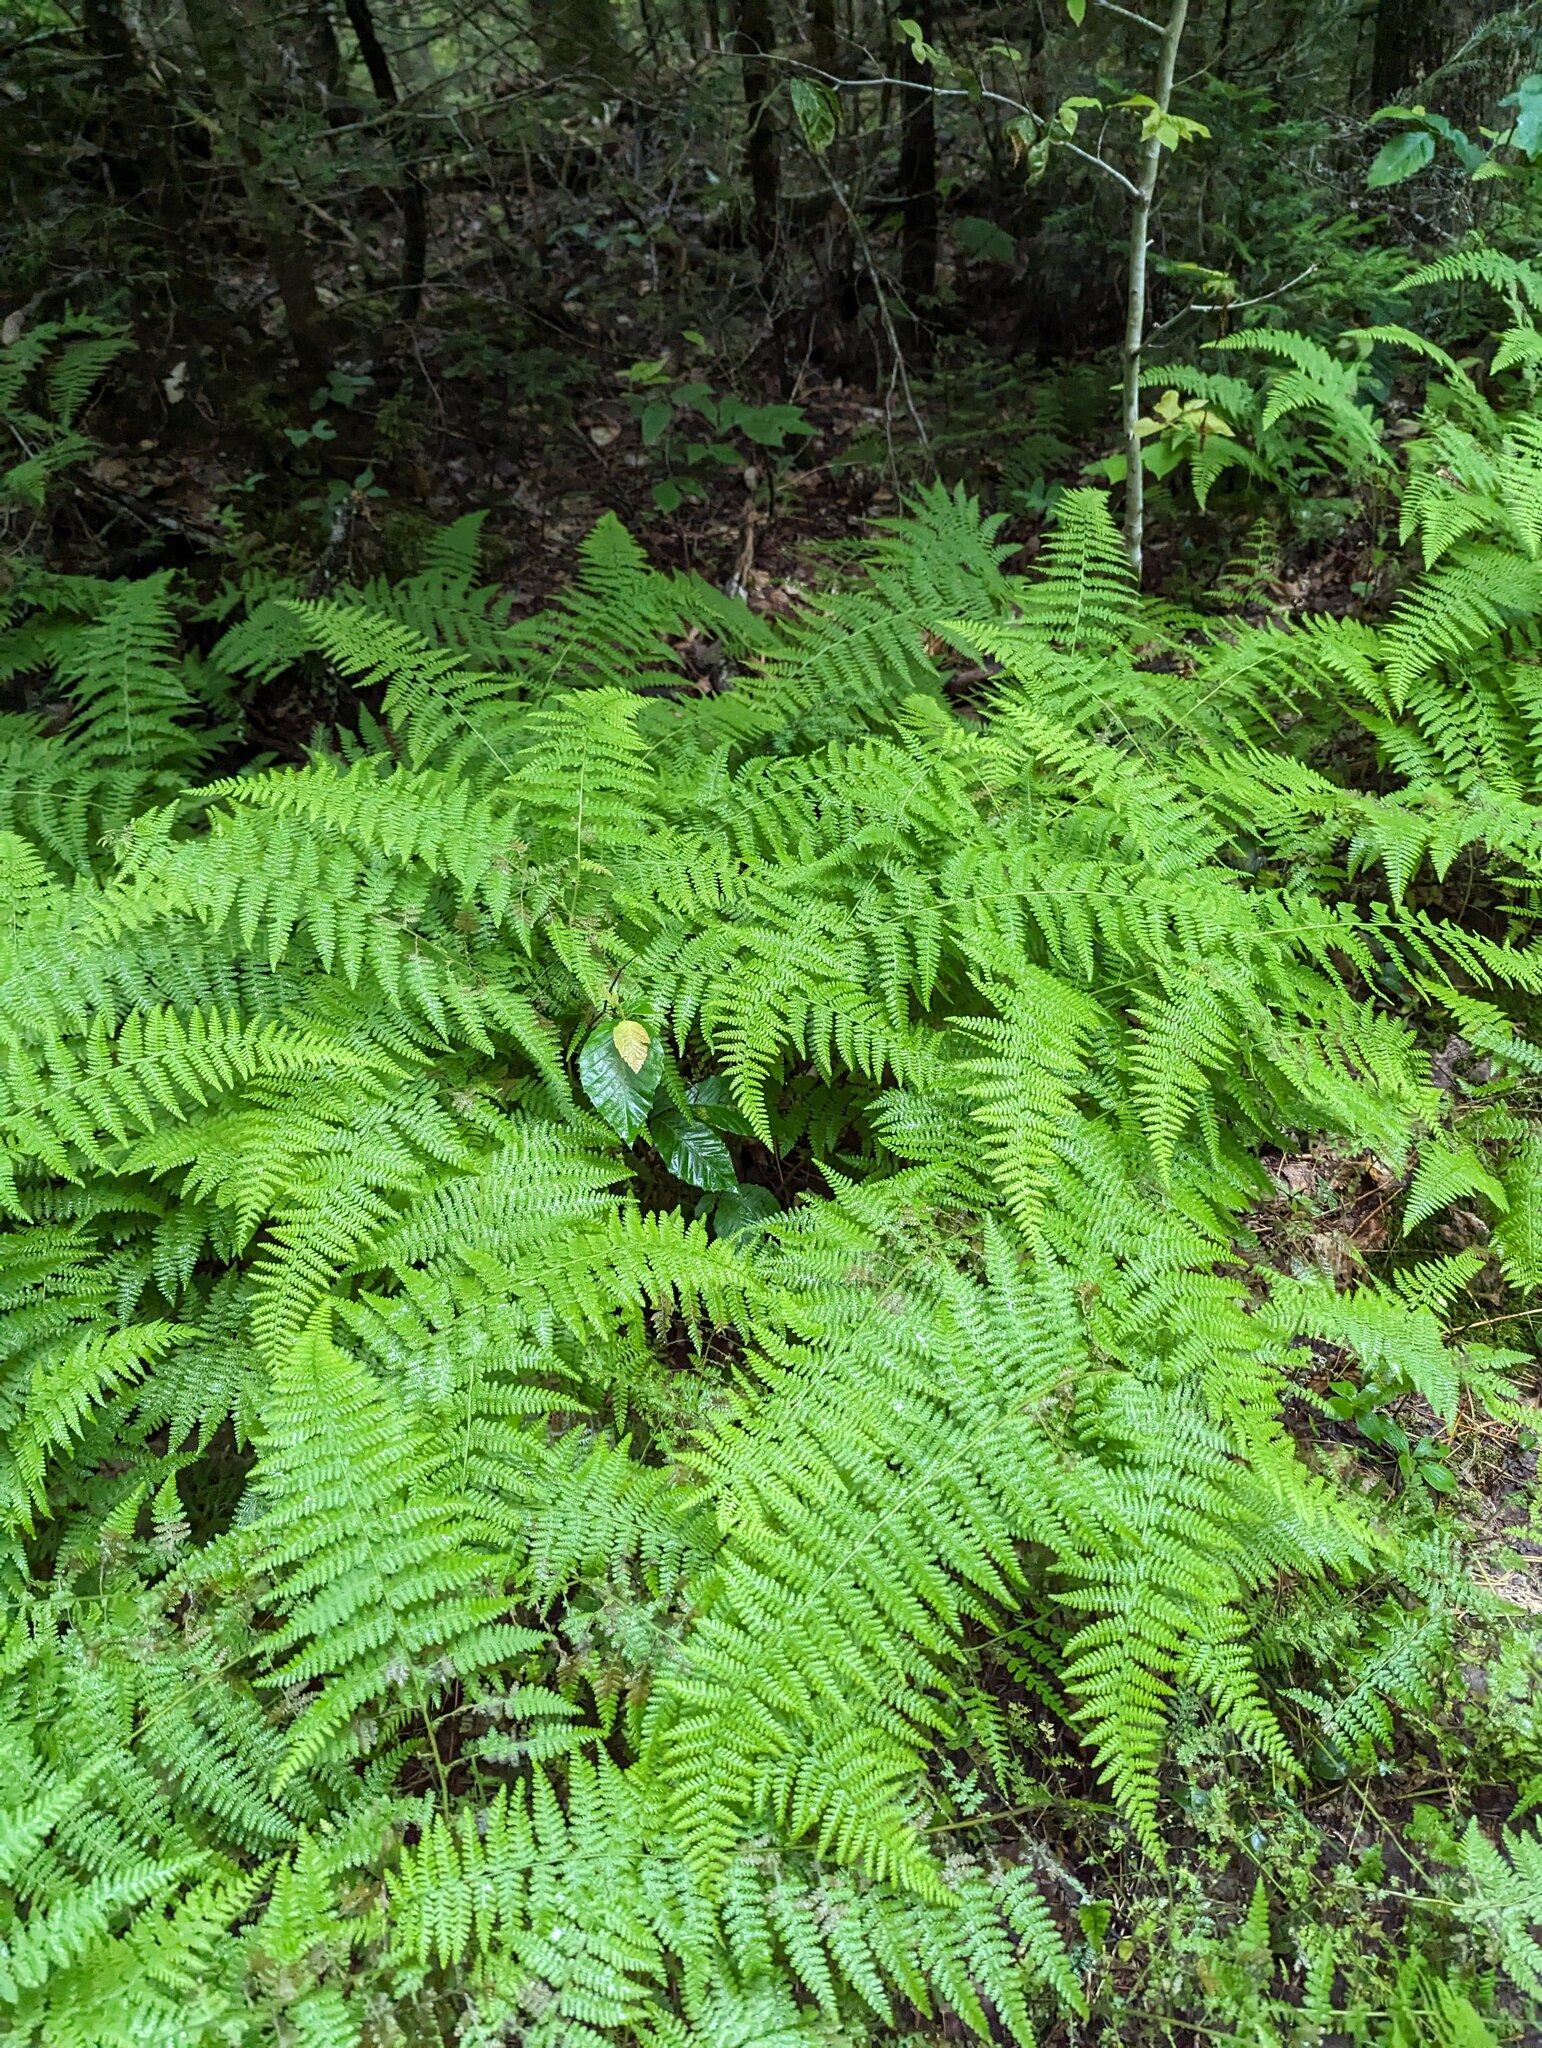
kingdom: Plantae
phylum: Tracheophyta
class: Polypodiopsida
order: Polypodiales
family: Dennstaedtiaceae
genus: Sitobolium
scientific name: Sitobolium punctilobum
